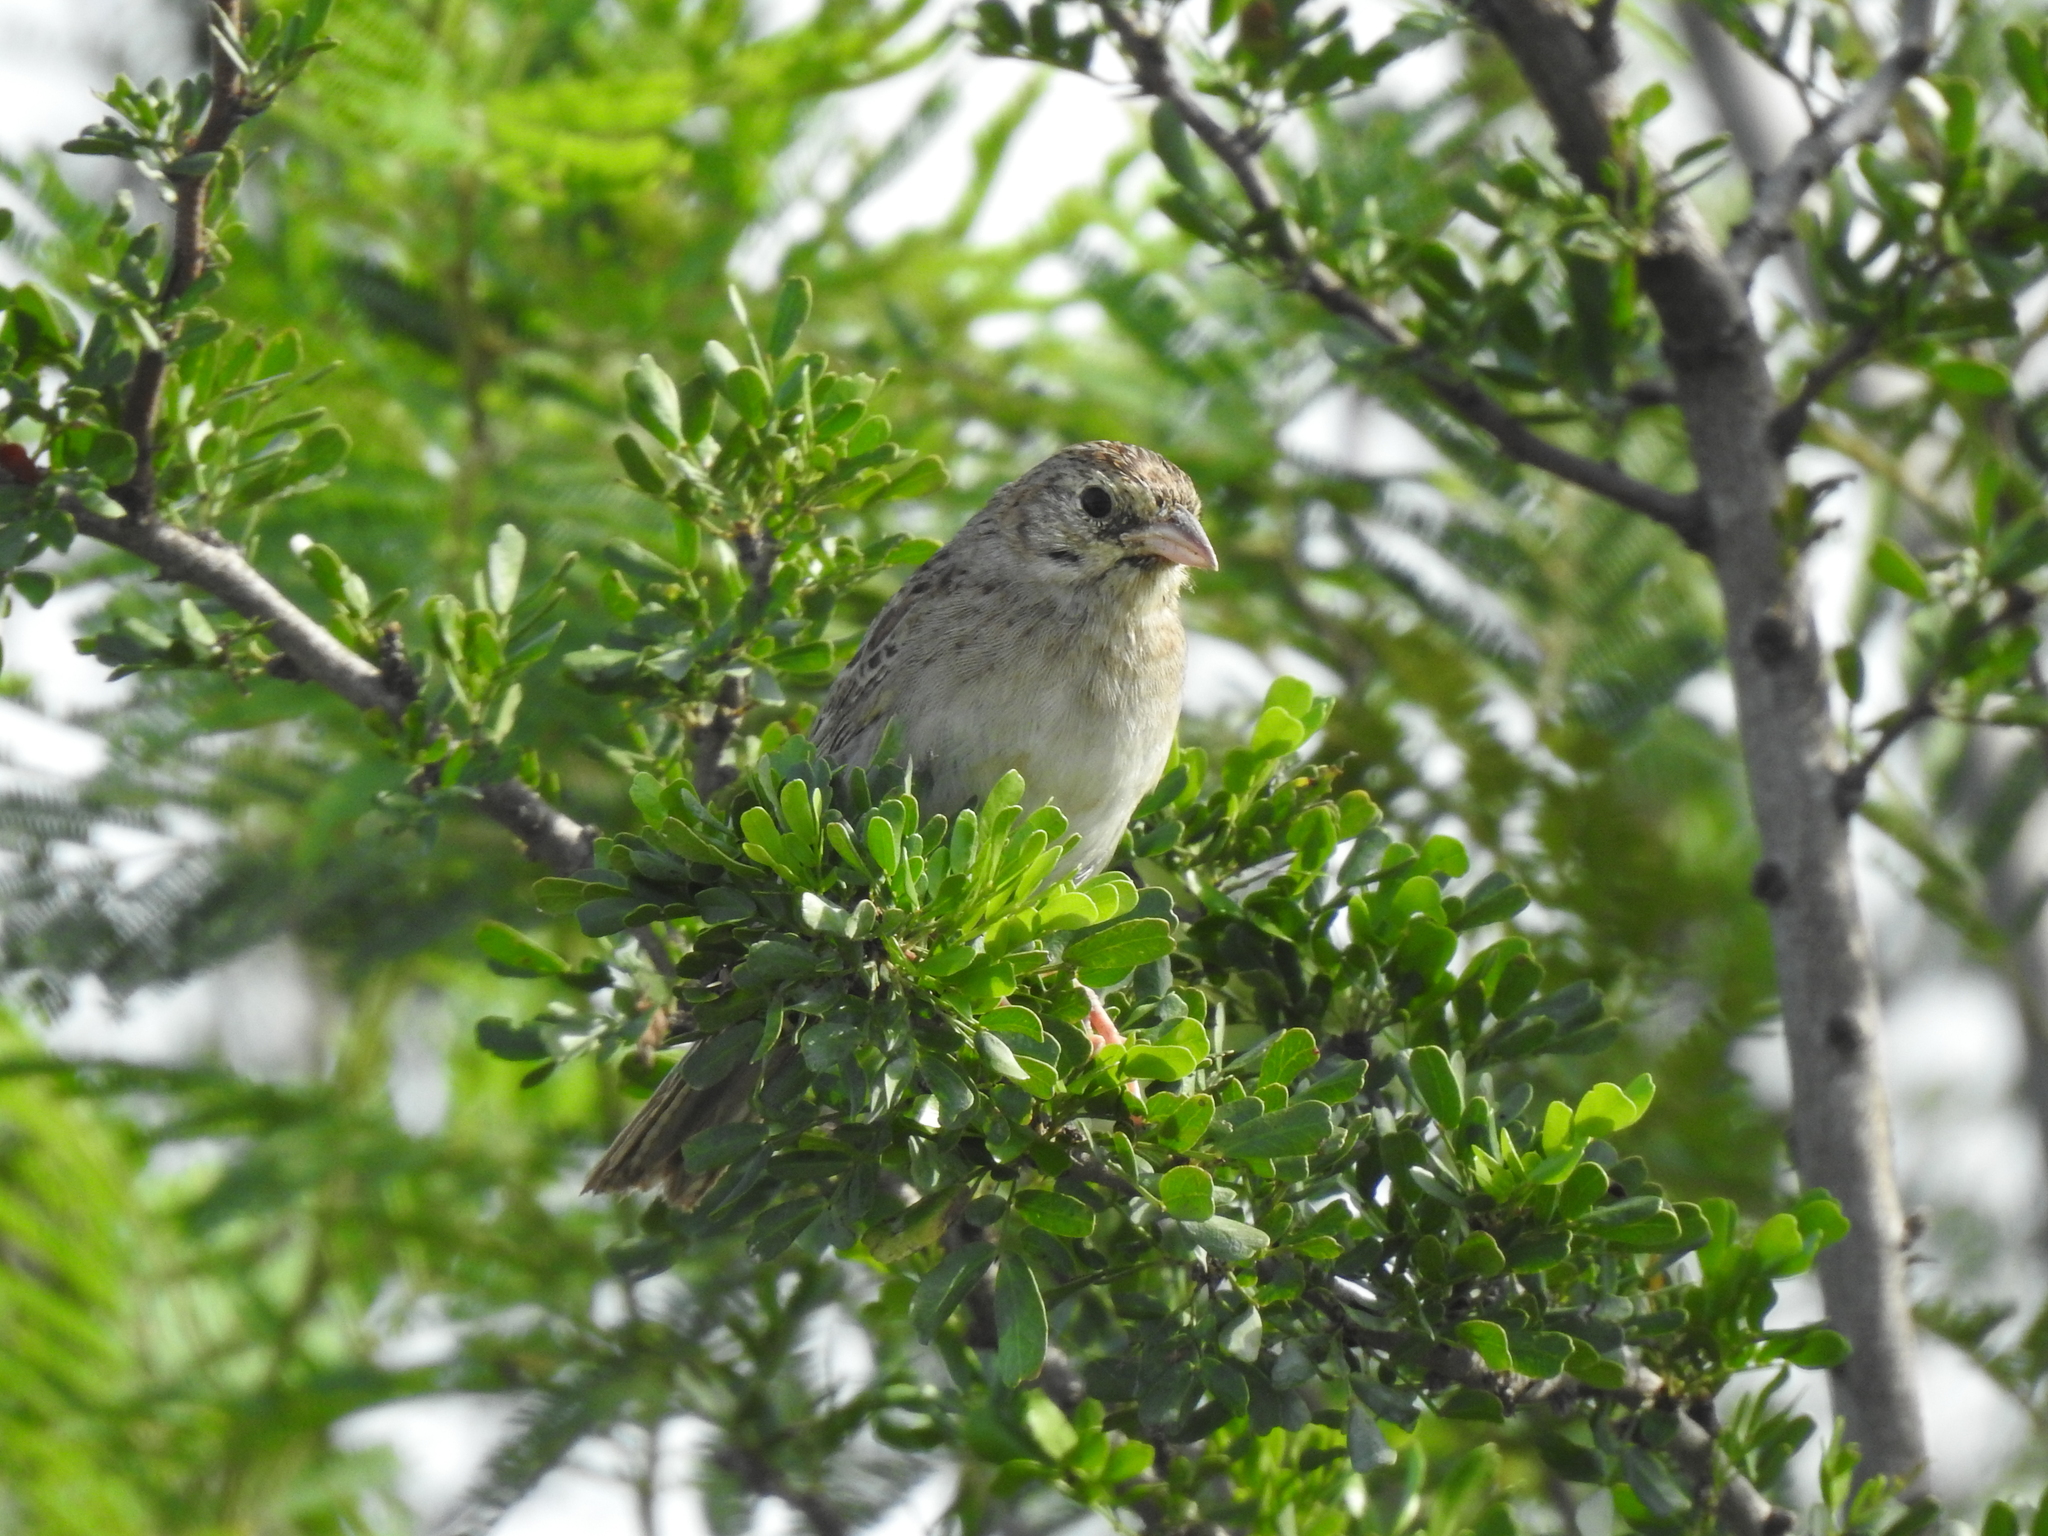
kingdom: Animalia
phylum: Chordata
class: Aves
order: Passeriformes
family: Passerellidae
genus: Peucaea
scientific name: Peucaea cassinii
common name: Cassin's sparrow
